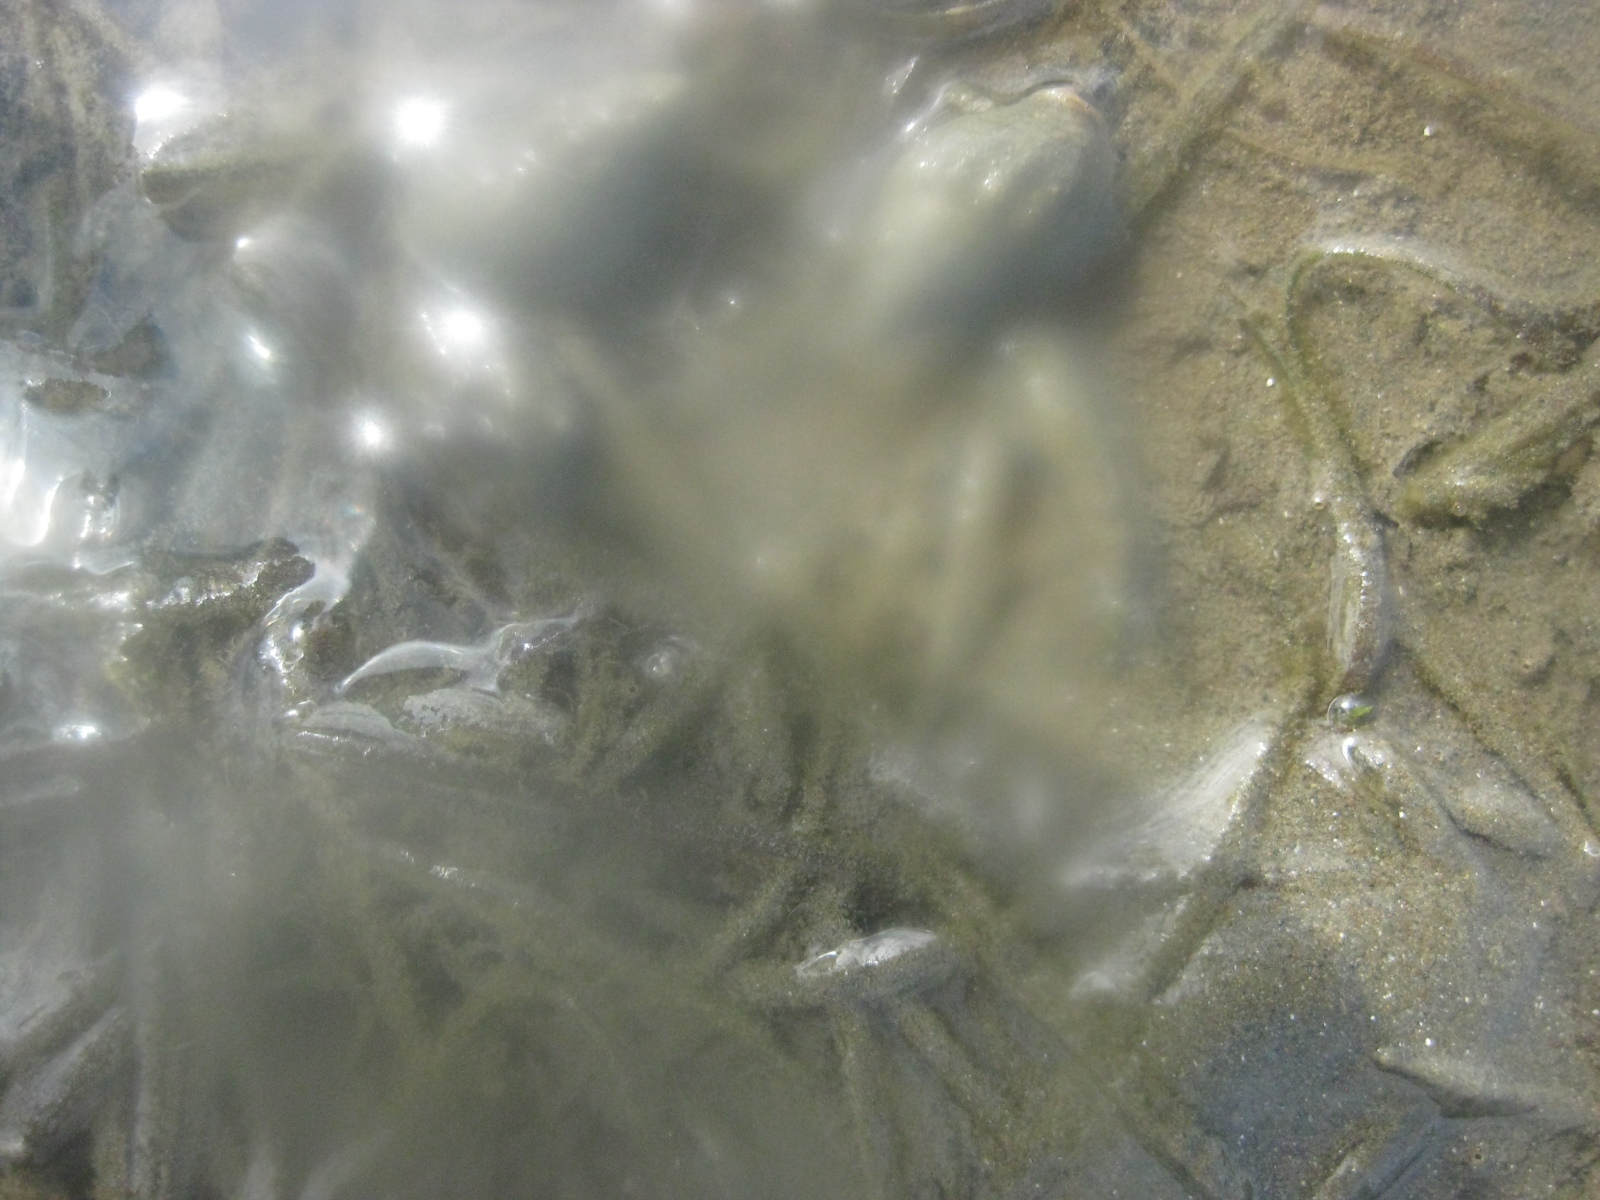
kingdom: Animalia
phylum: Mollusca
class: Gastropoda
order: Neogastropoda
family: Cominellidae
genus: Cominella
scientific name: Cominella glandiformis
